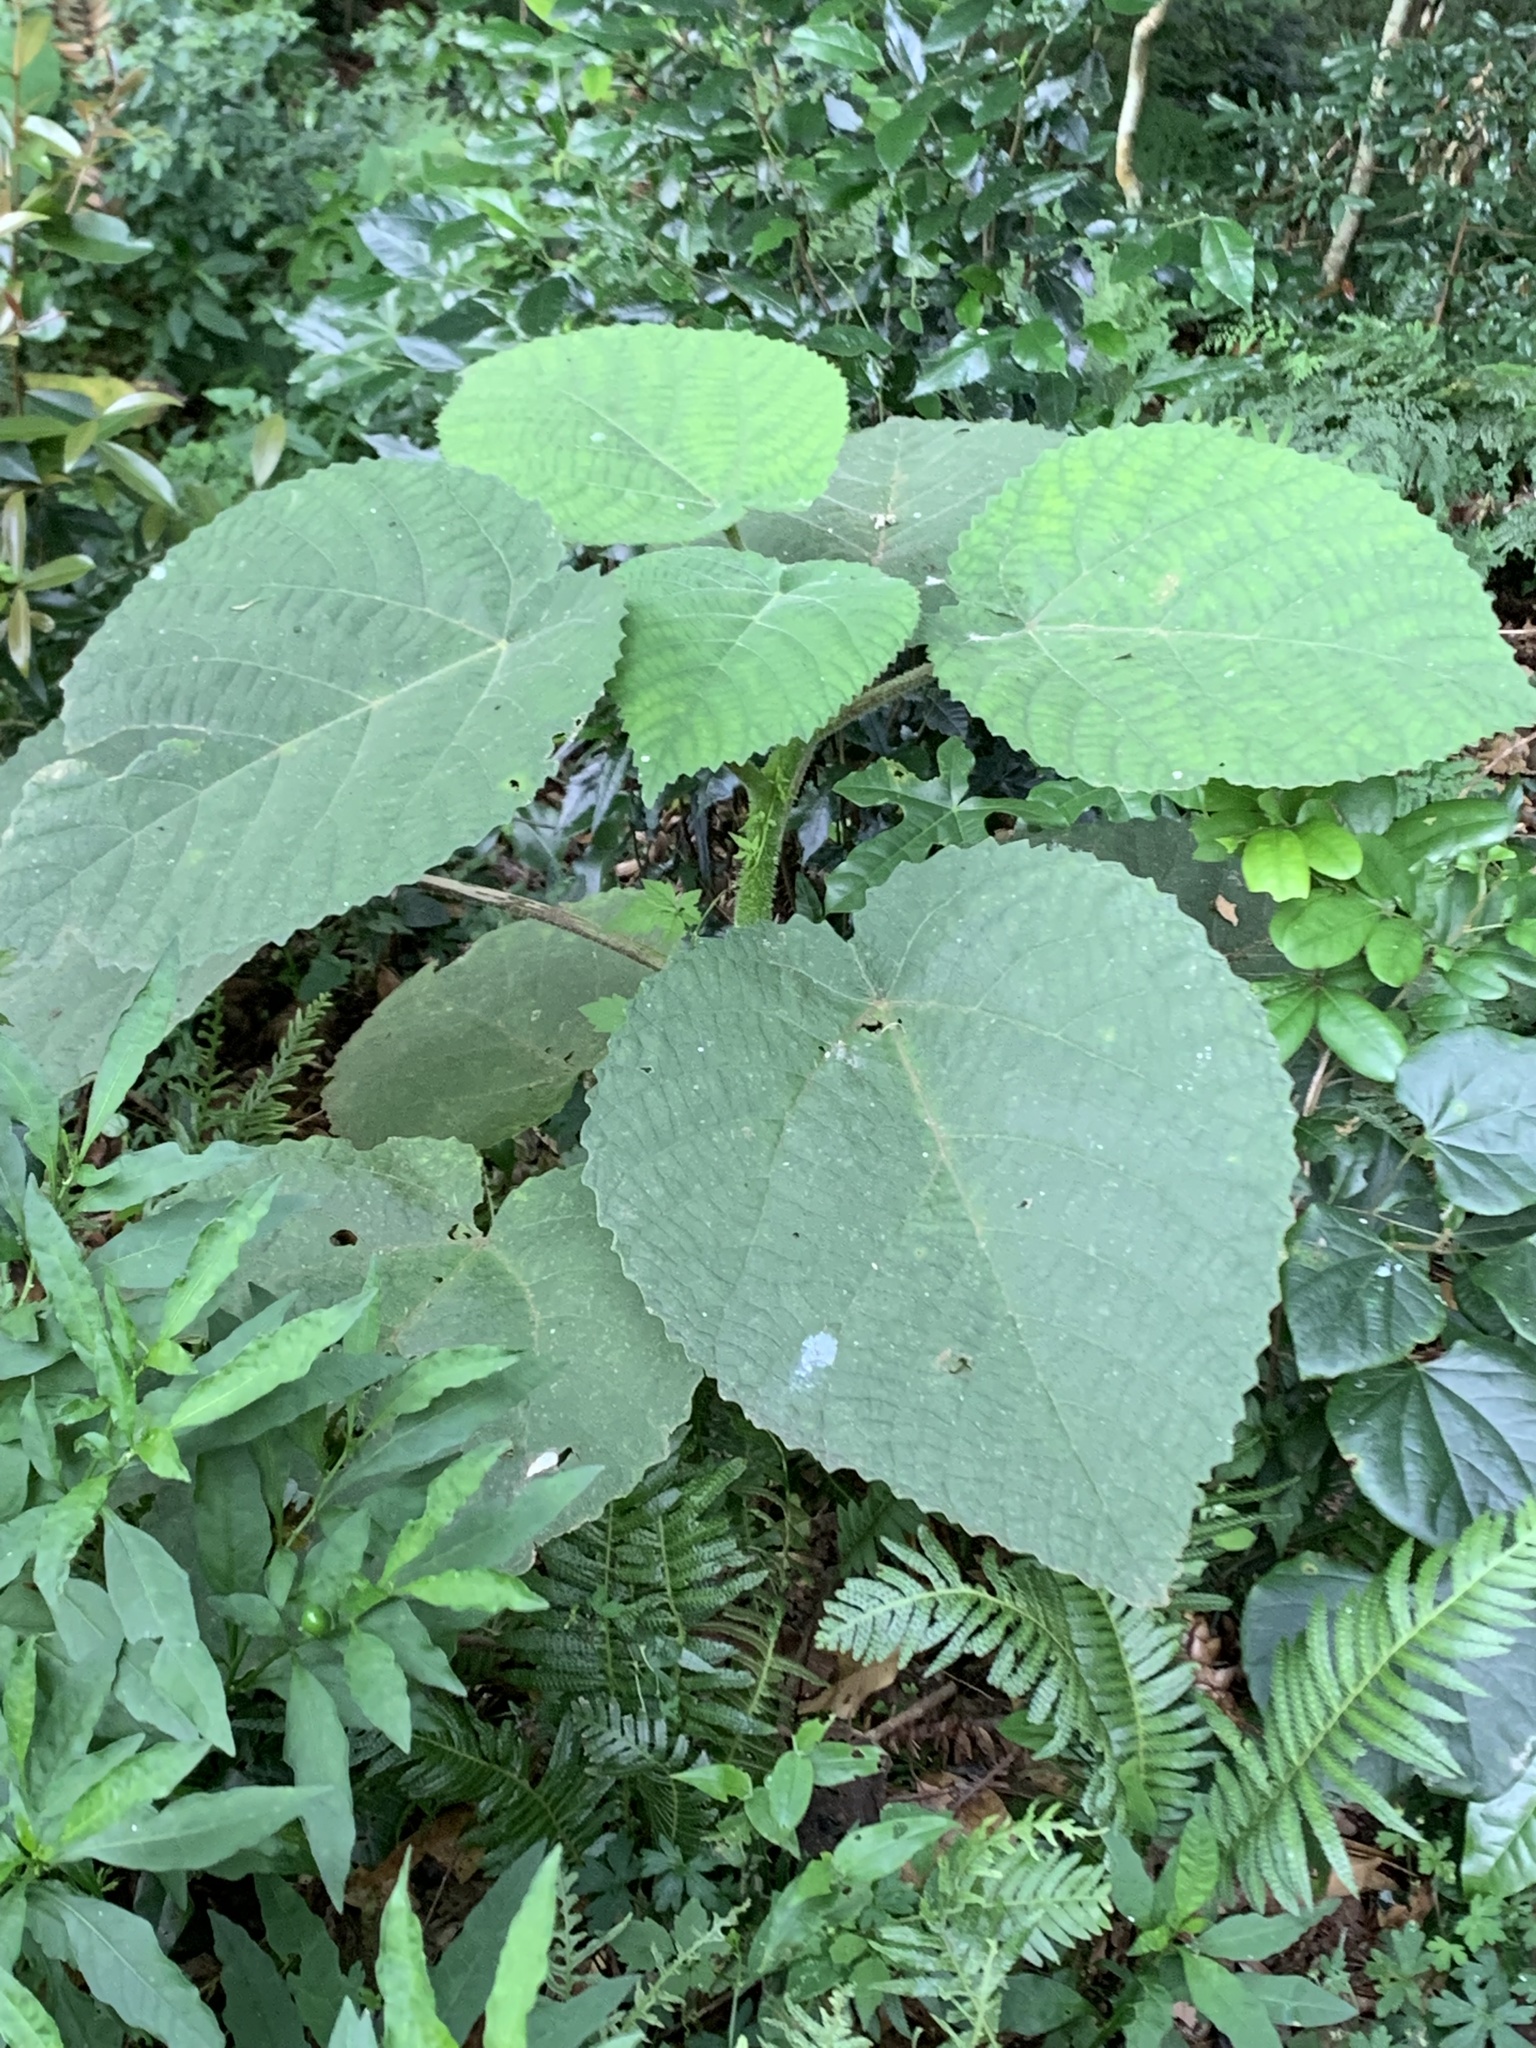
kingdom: Plantae
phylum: Tracheophyta
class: Magnoliopsida
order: Rosales
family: Urticaceae
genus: Dendrocnide
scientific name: Dendrocnide excelsa
